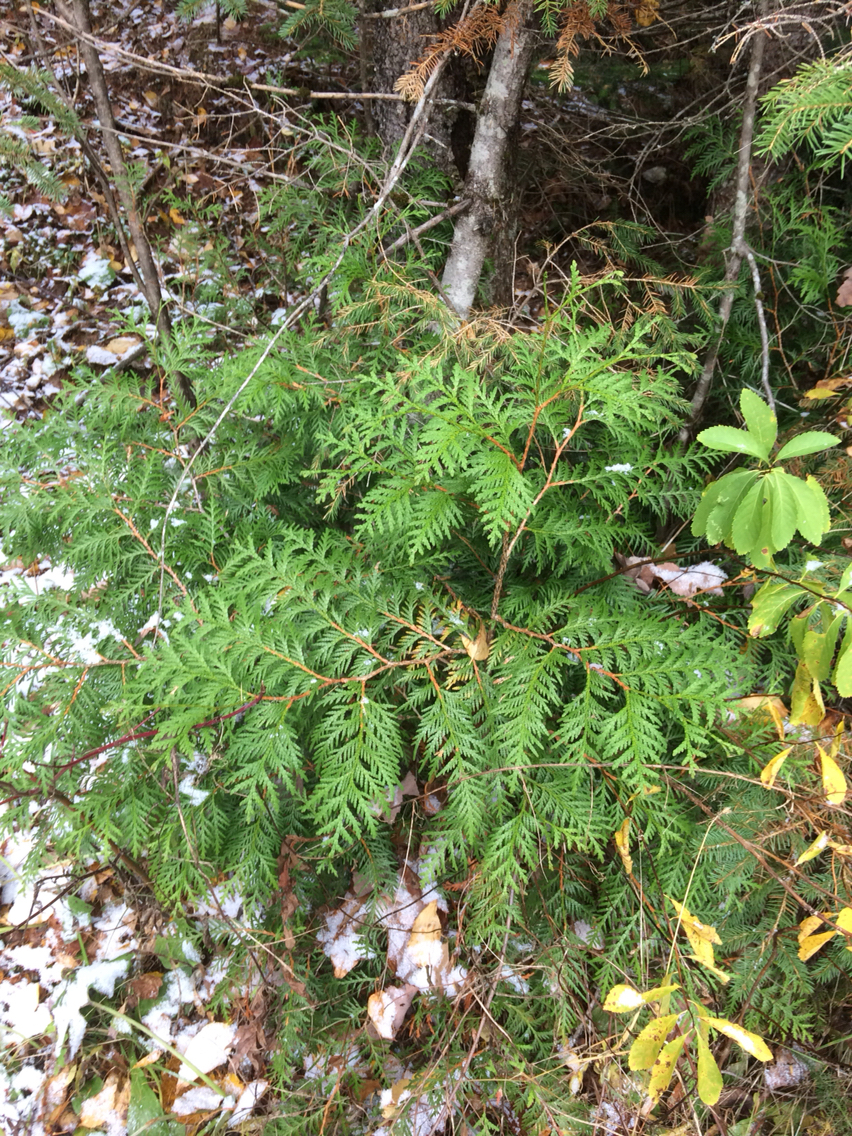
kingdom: Plantae
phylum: Tracheophyta
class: Pinopsida
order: Pinales
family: Cupressaceae
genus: Thuja
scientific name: Thuja occidentalis
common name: Northern white-cedar
